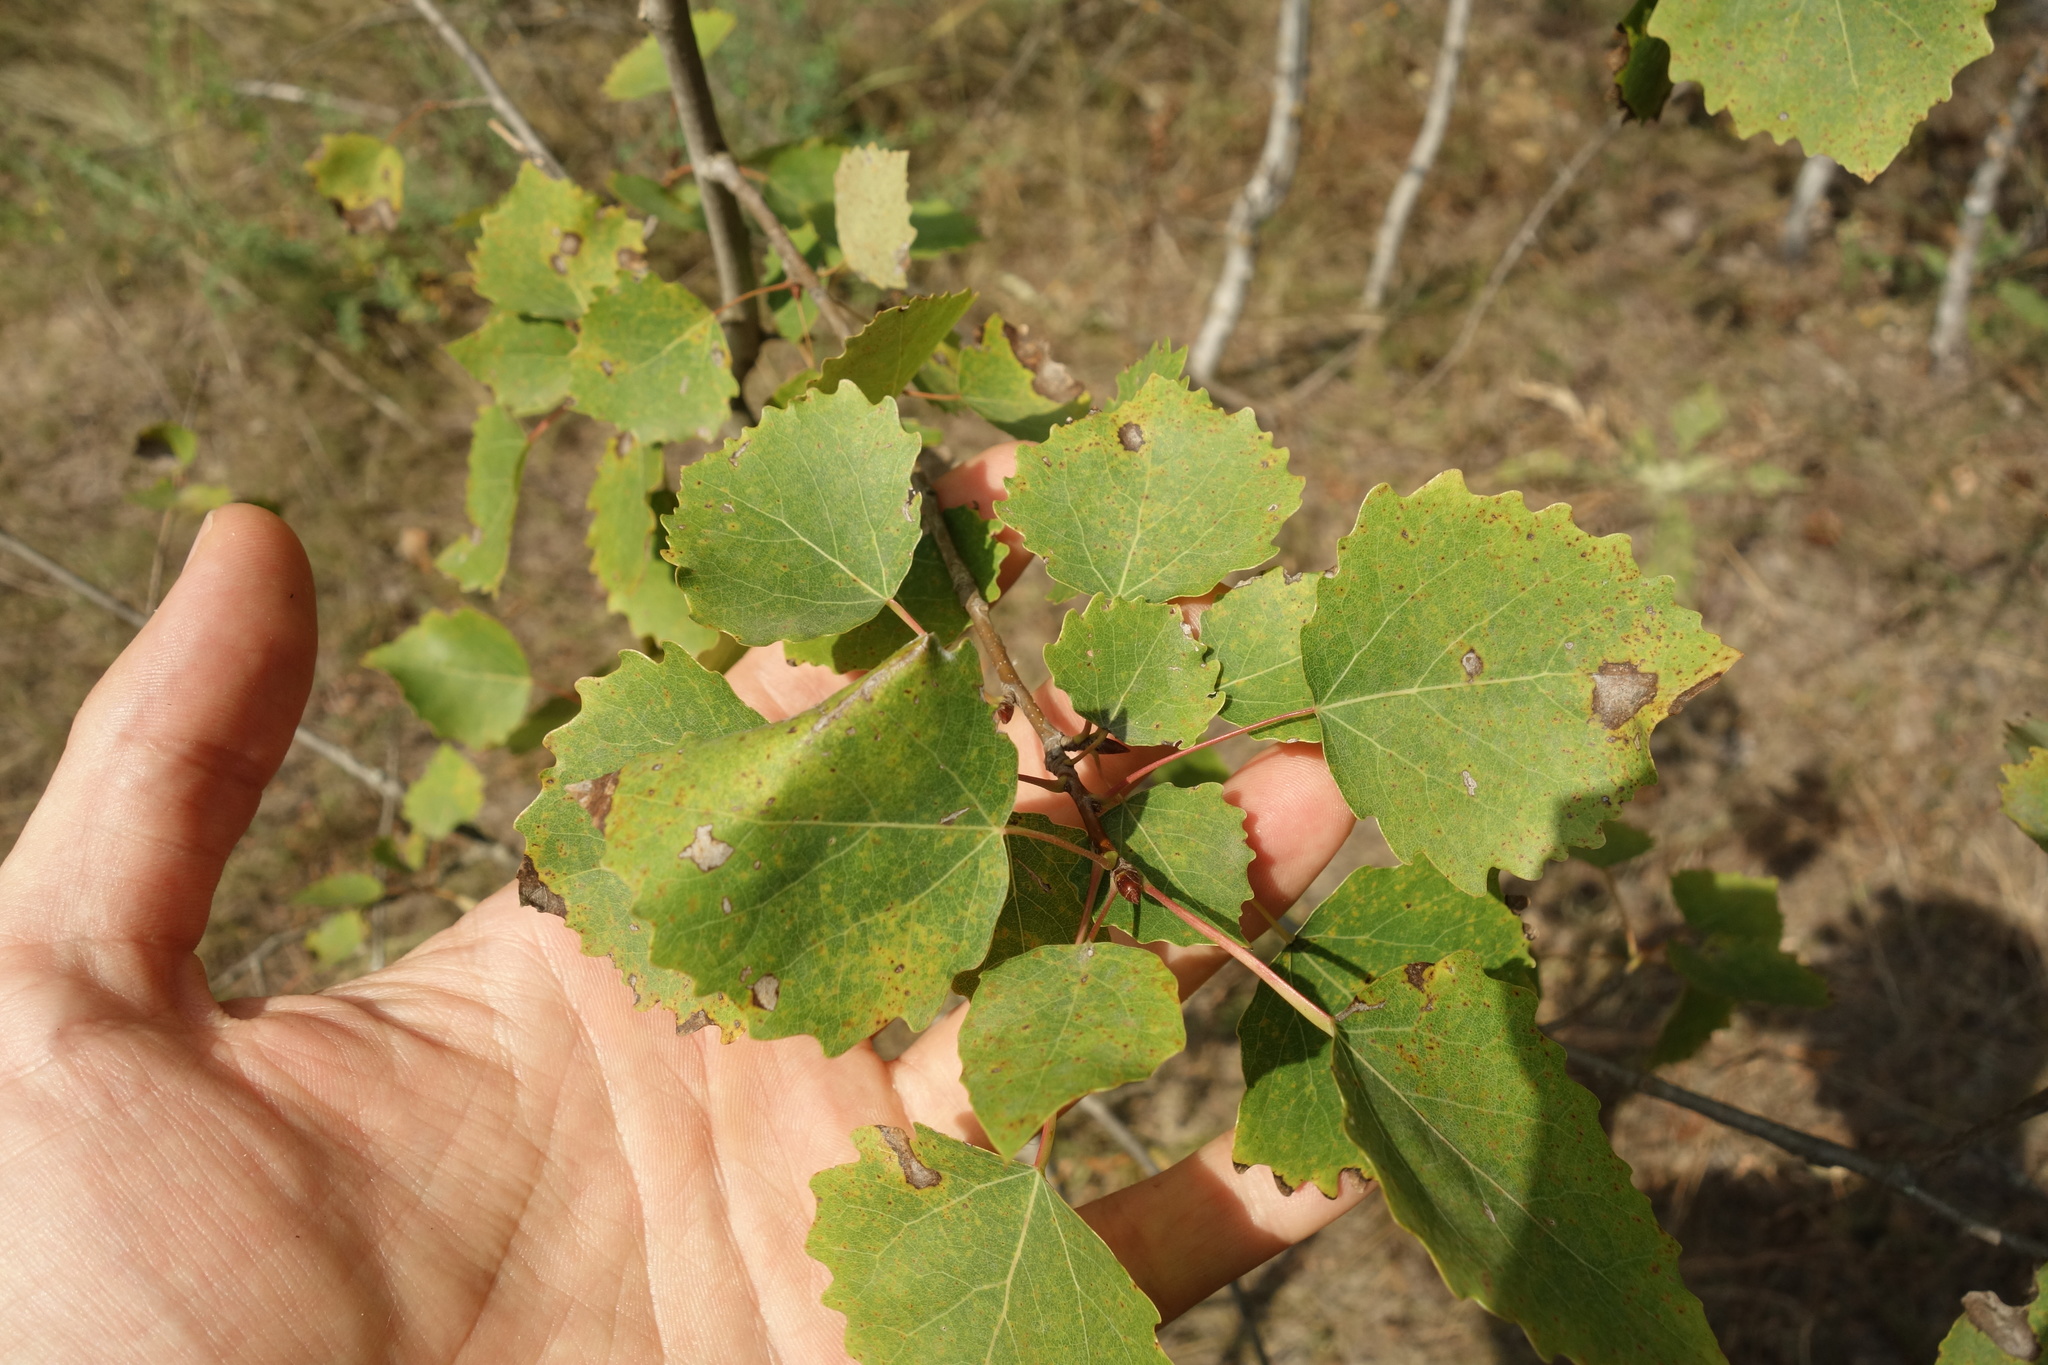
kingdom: Plantae
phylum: Tracheophyta
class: Magnoliopsida
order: Malpighiales
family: Salicaceae
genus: Populus
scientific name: Populus tremula
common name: European aspen
